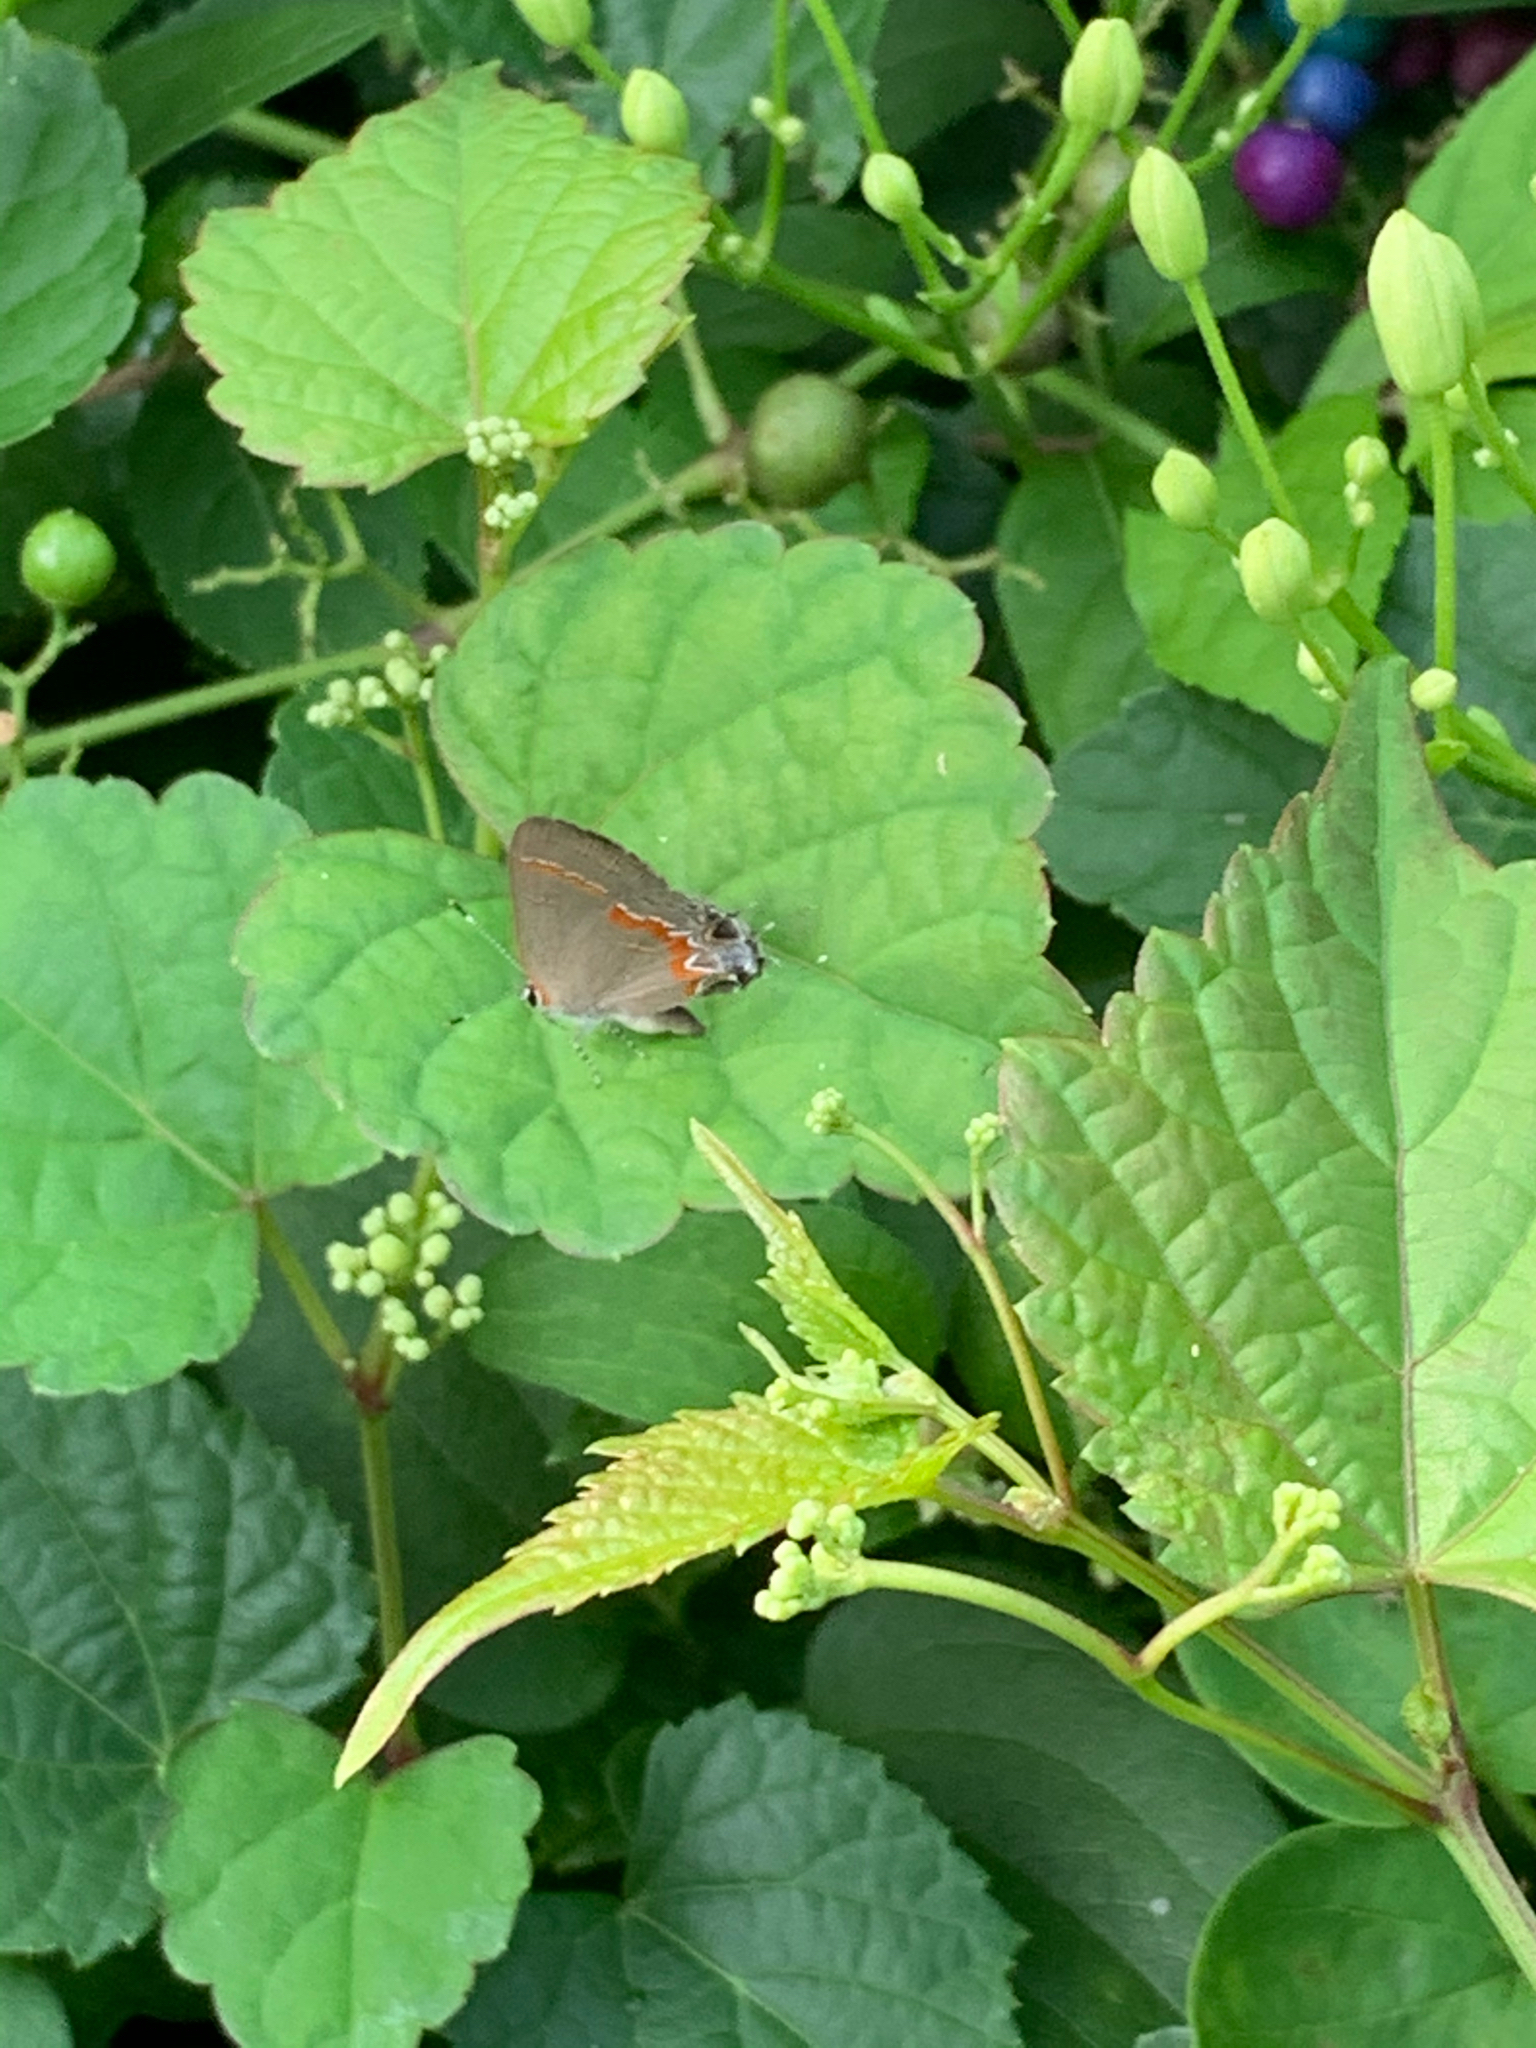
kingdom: Animalia
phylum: Arthropoda
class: Insecta
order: Lepidoptera
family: Lycaenidae
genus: Calycopis
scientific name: Calycopis cecrops
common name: Red-banded hairstreak
